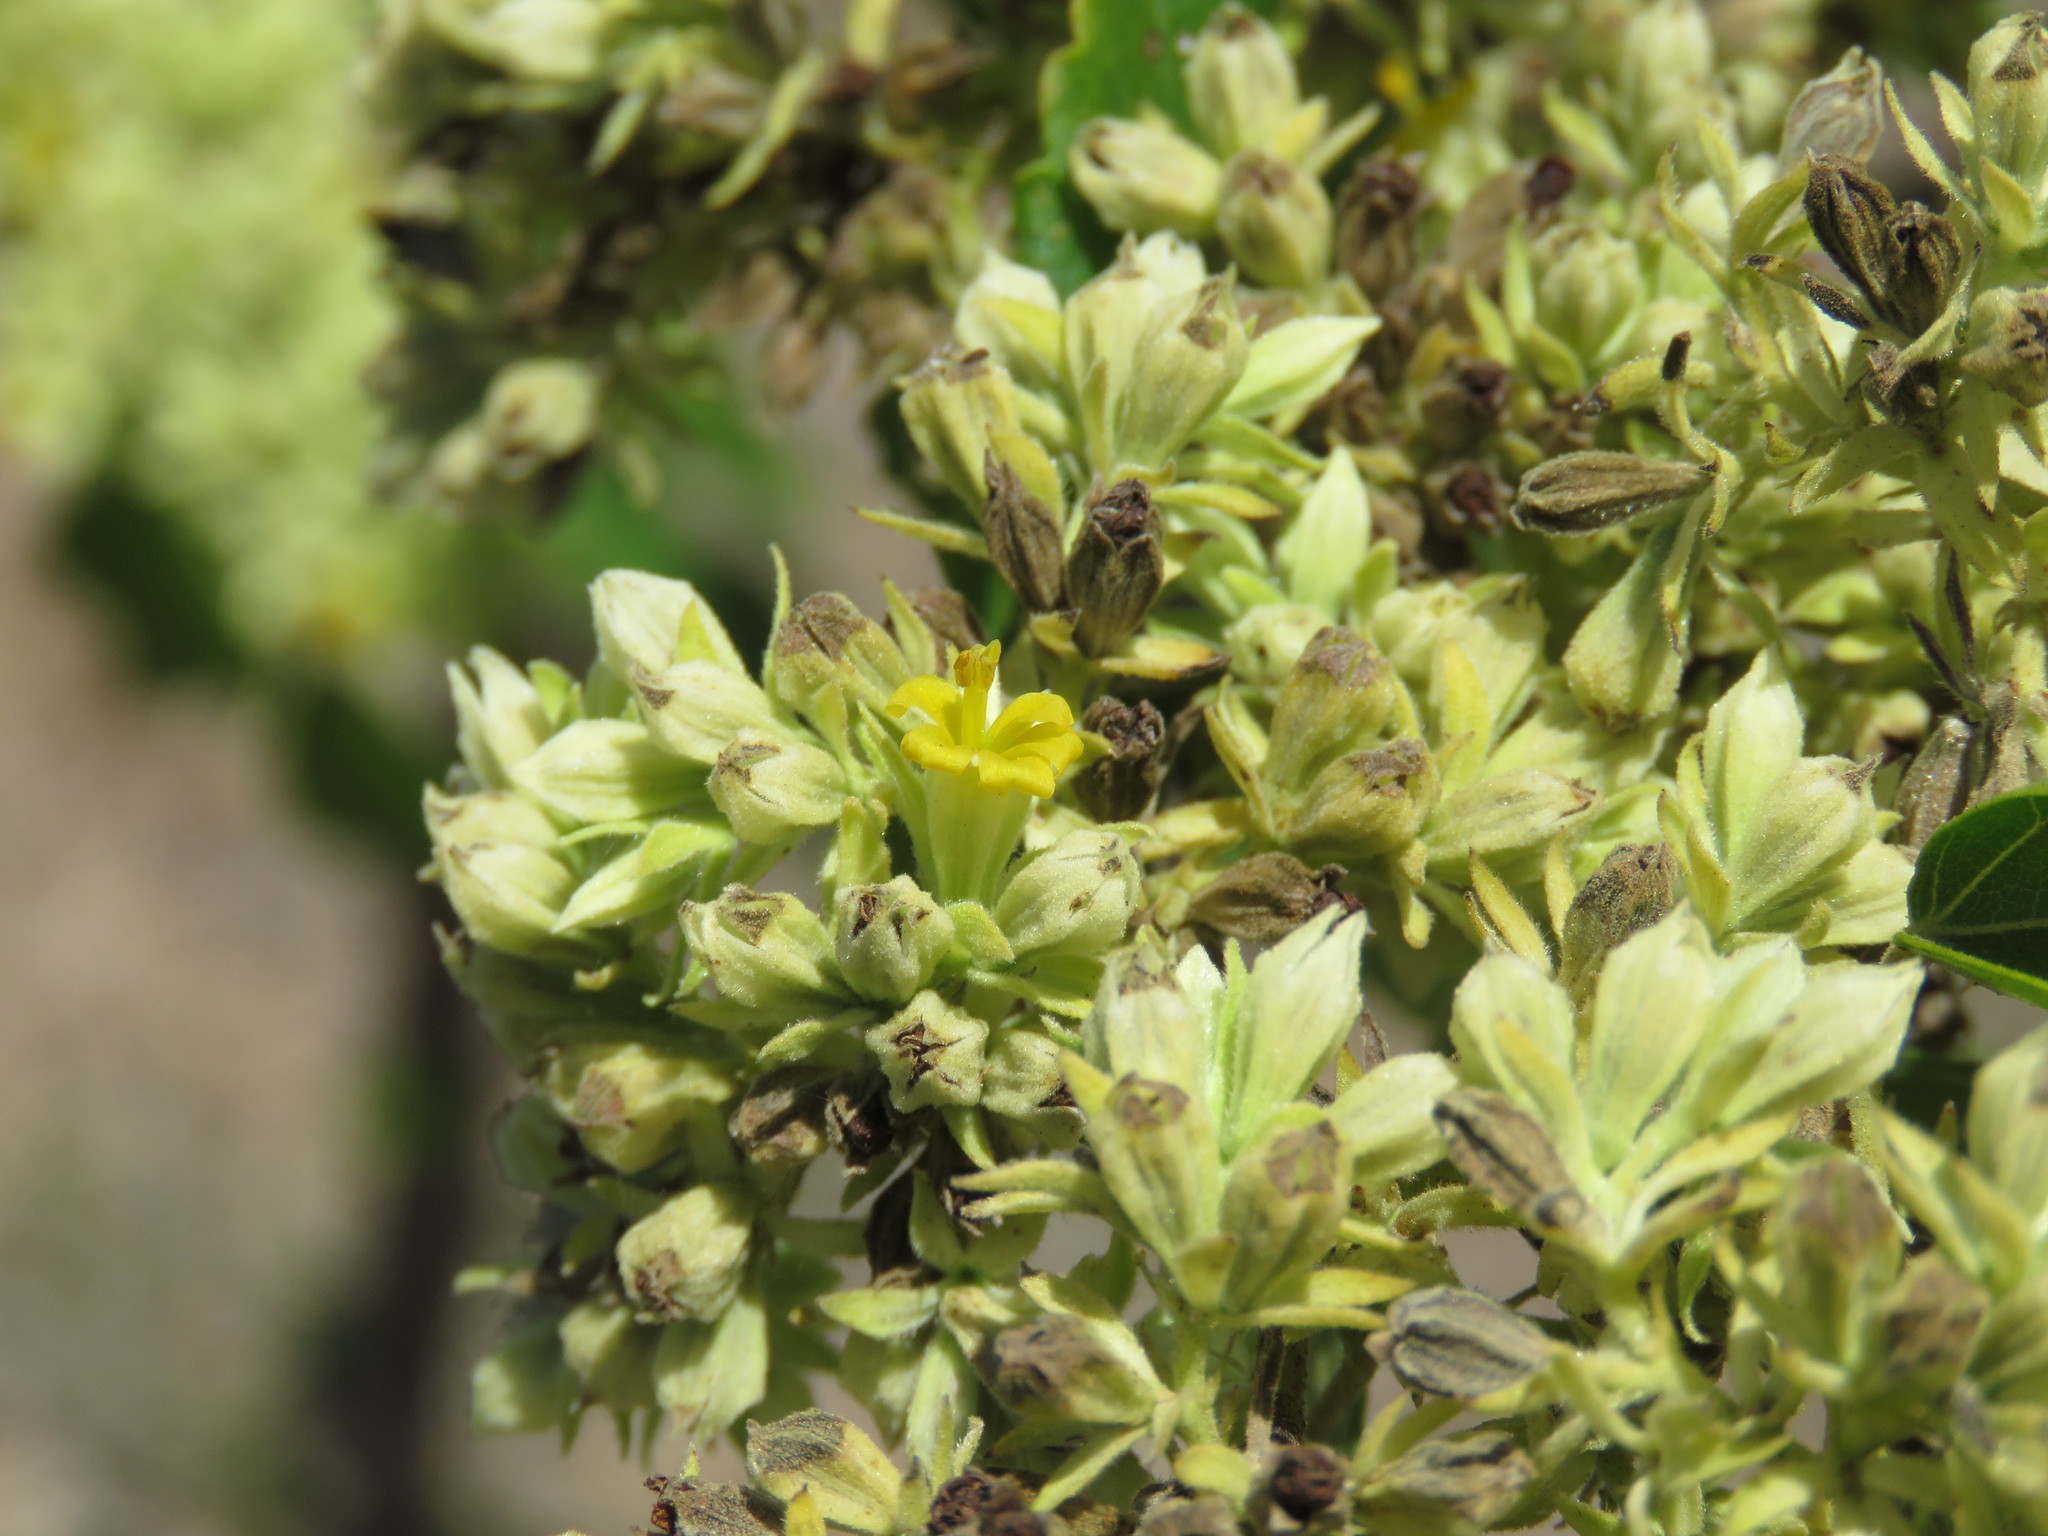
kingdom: Plantae
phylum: Tracheophyta
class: Magnoliopsida
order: Malvales
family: Malvaceae
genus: Waltheria
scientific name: Waltheria acuminata
